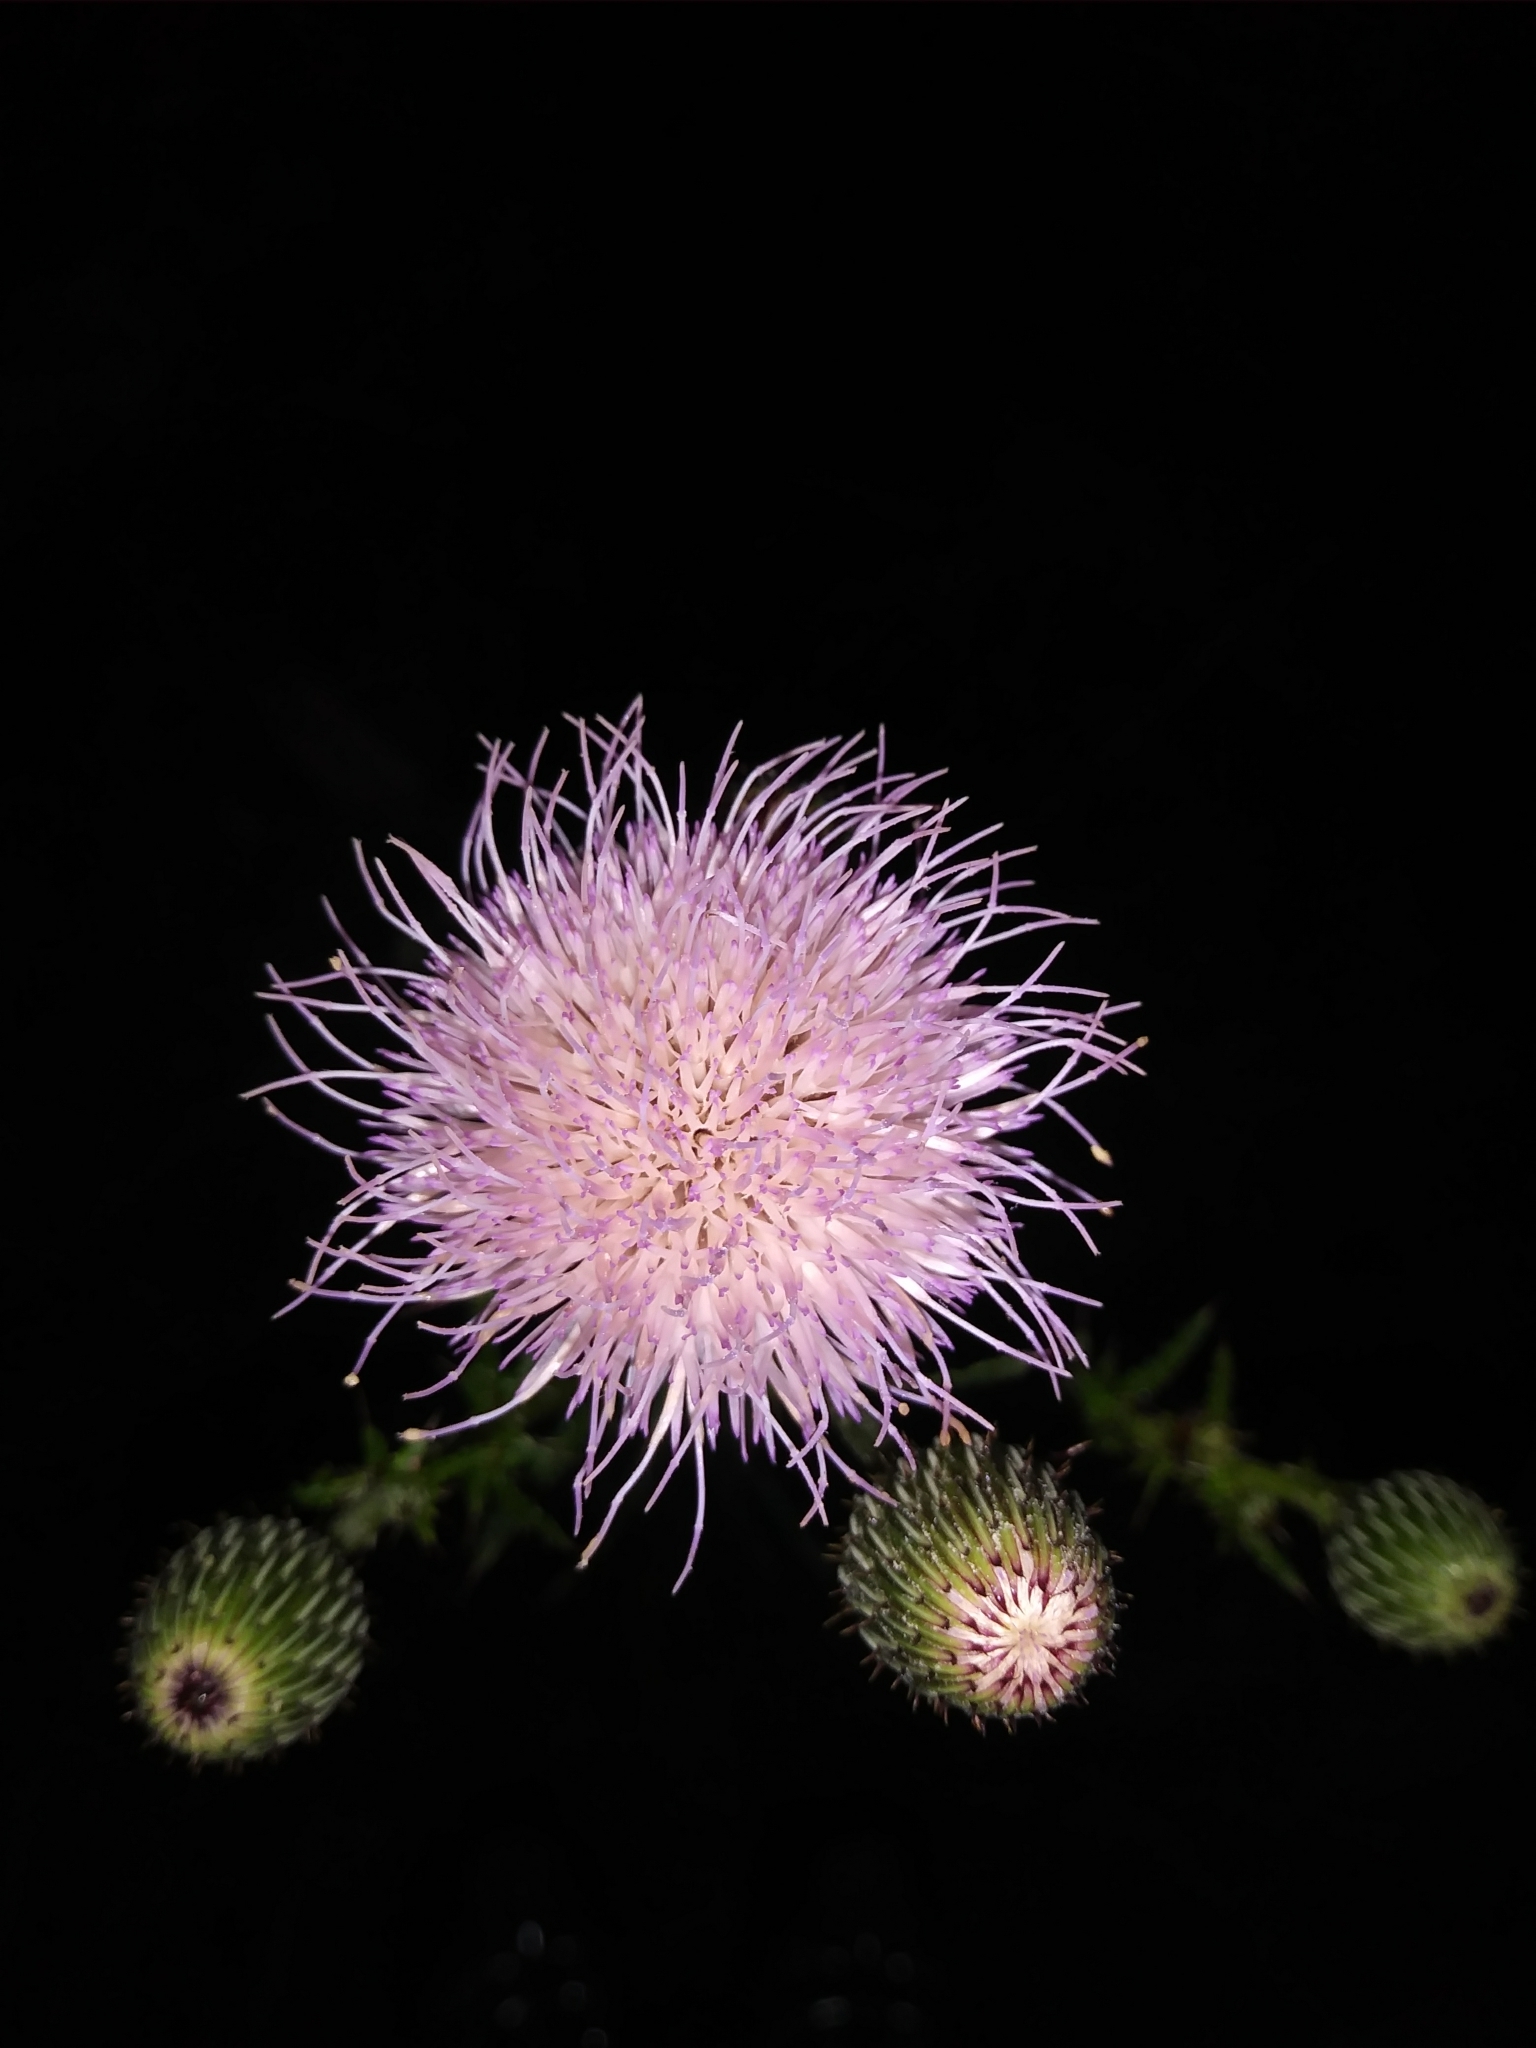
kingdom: Plantae
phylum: Tracheophyta
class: Magnoliopsida
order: Asterales
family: Asteraceae
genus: Cirsium
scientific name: Cirsium nuttalii
